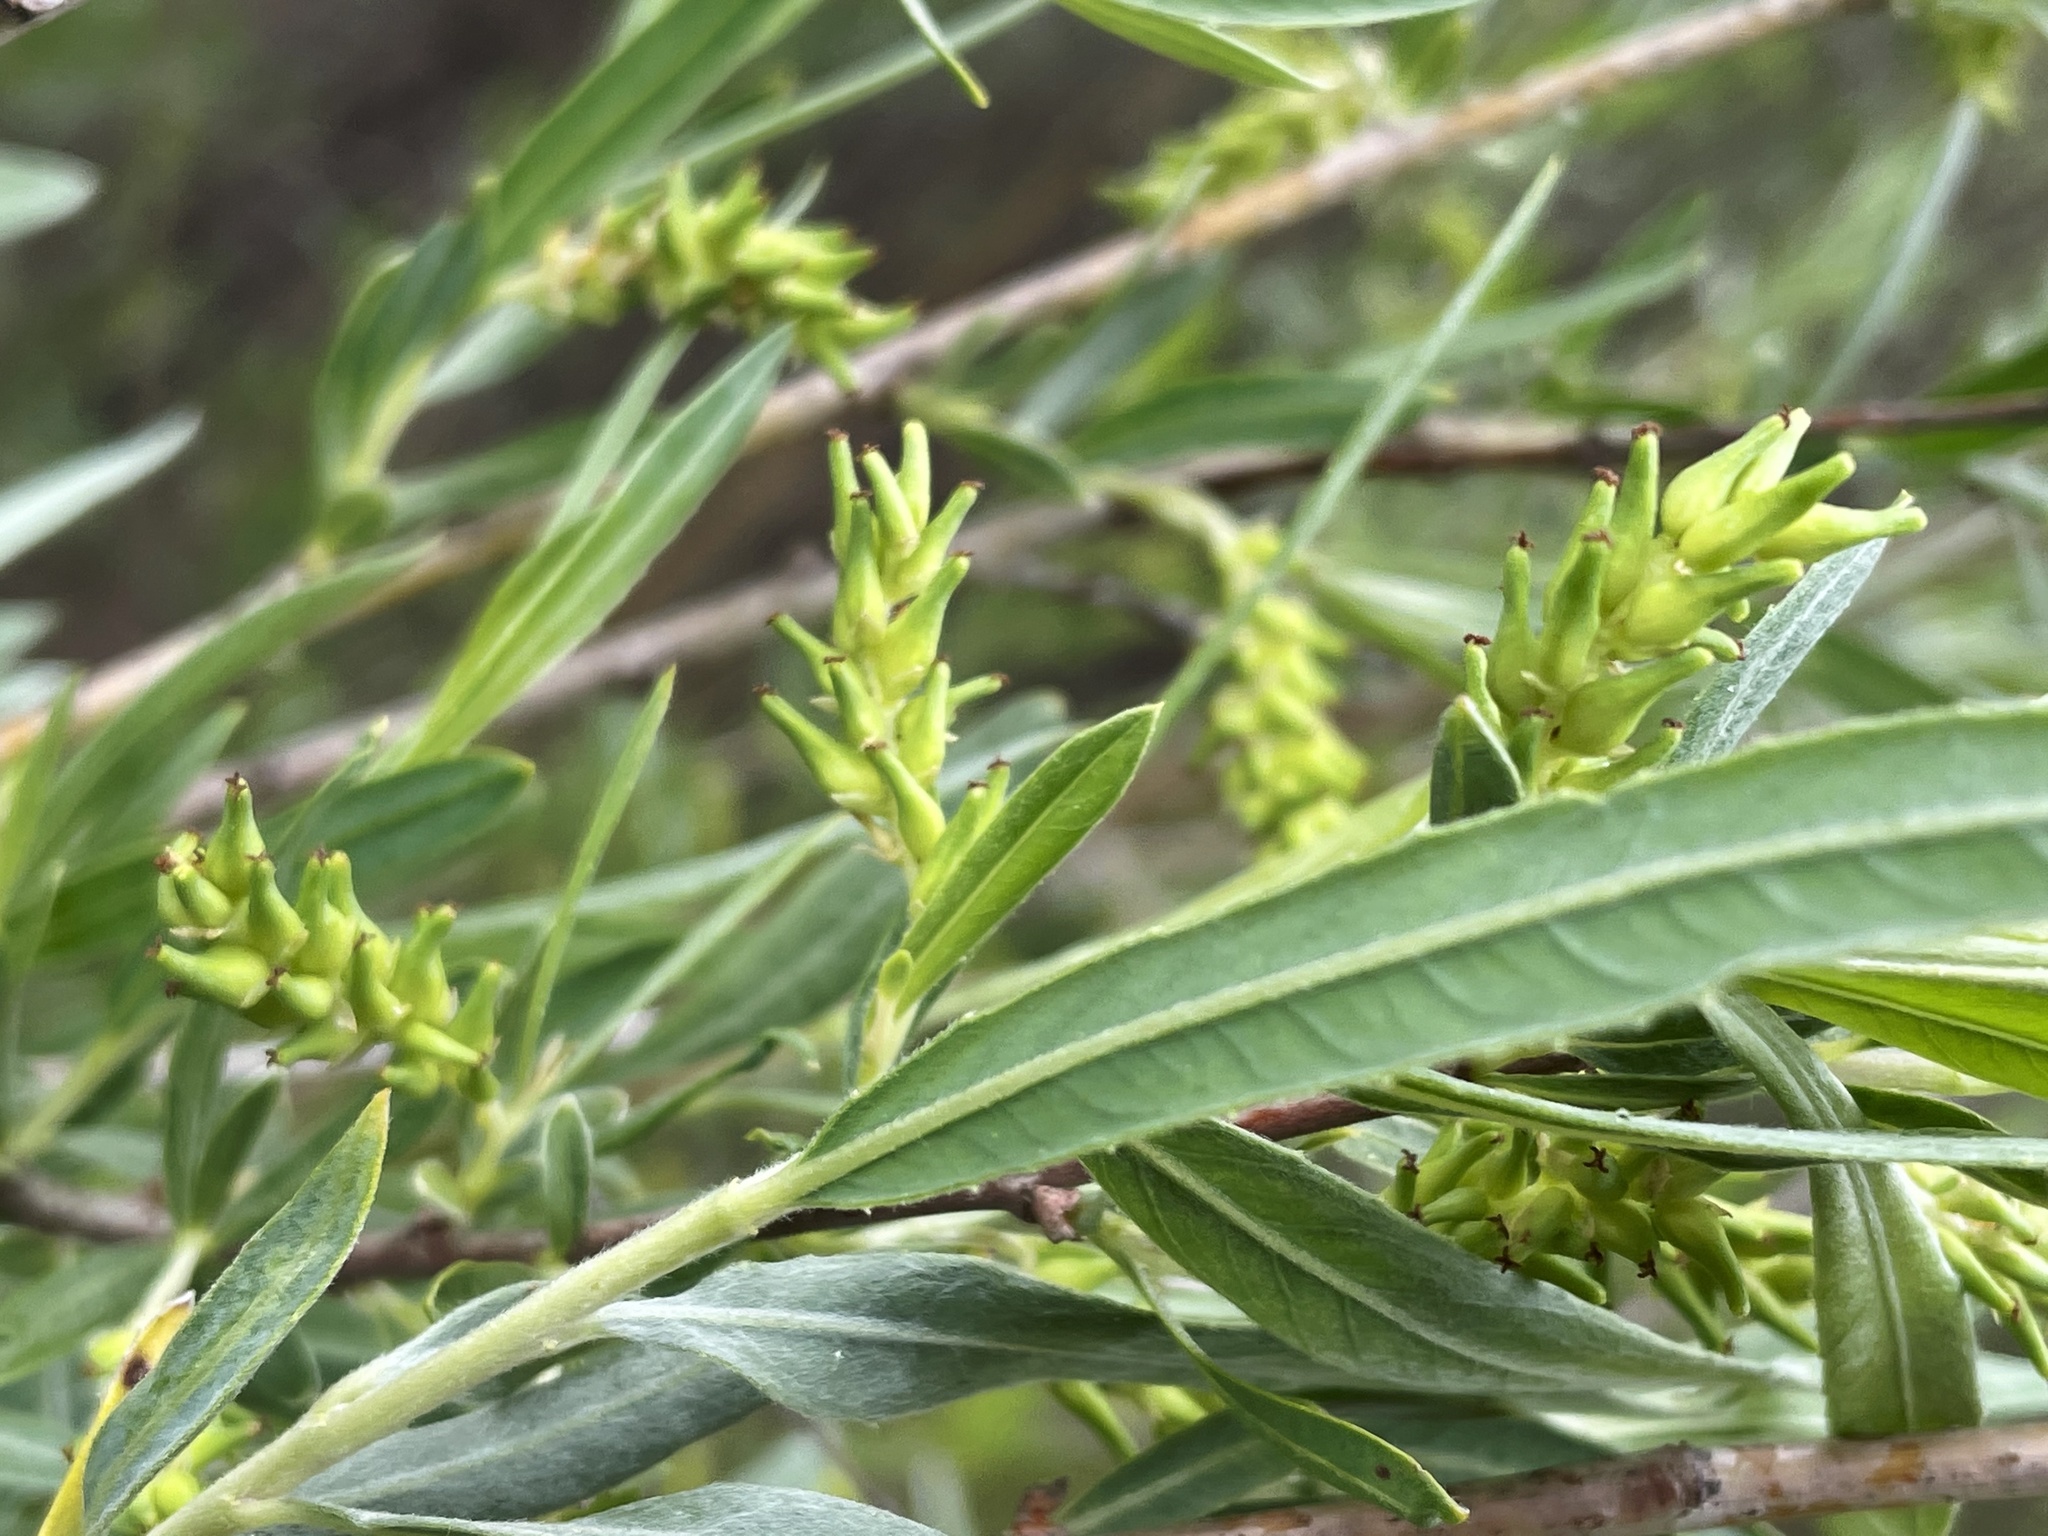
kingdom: Animalia
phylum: Arthropoda
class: Insecta
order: Hymenoptera
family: Tenthredinidae
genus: Euura
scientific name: Euura
